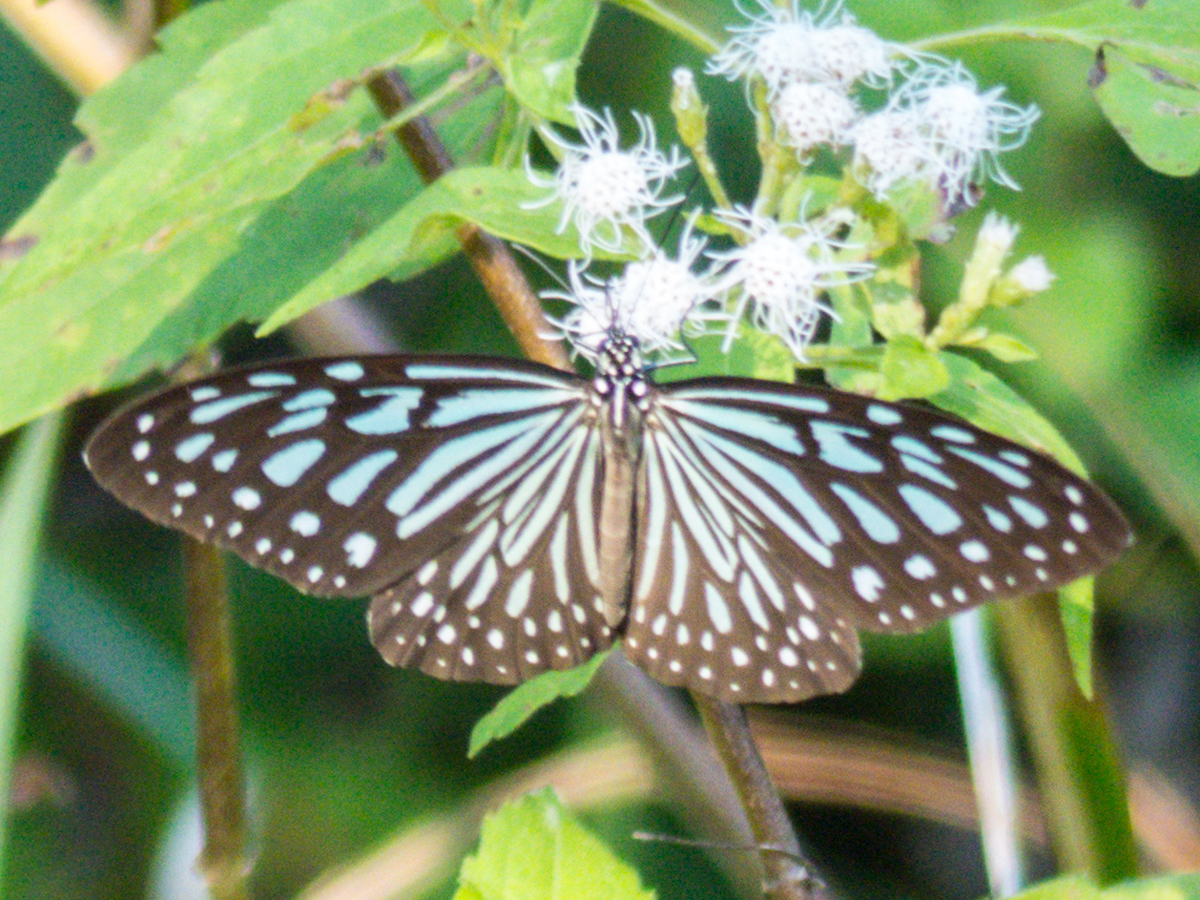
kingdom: Animalia
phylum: Arthropoda
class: Insecta
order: Lepidoptera
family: Nymphalidae
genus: Ideopsis
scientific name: Ideopsis vulgaris
